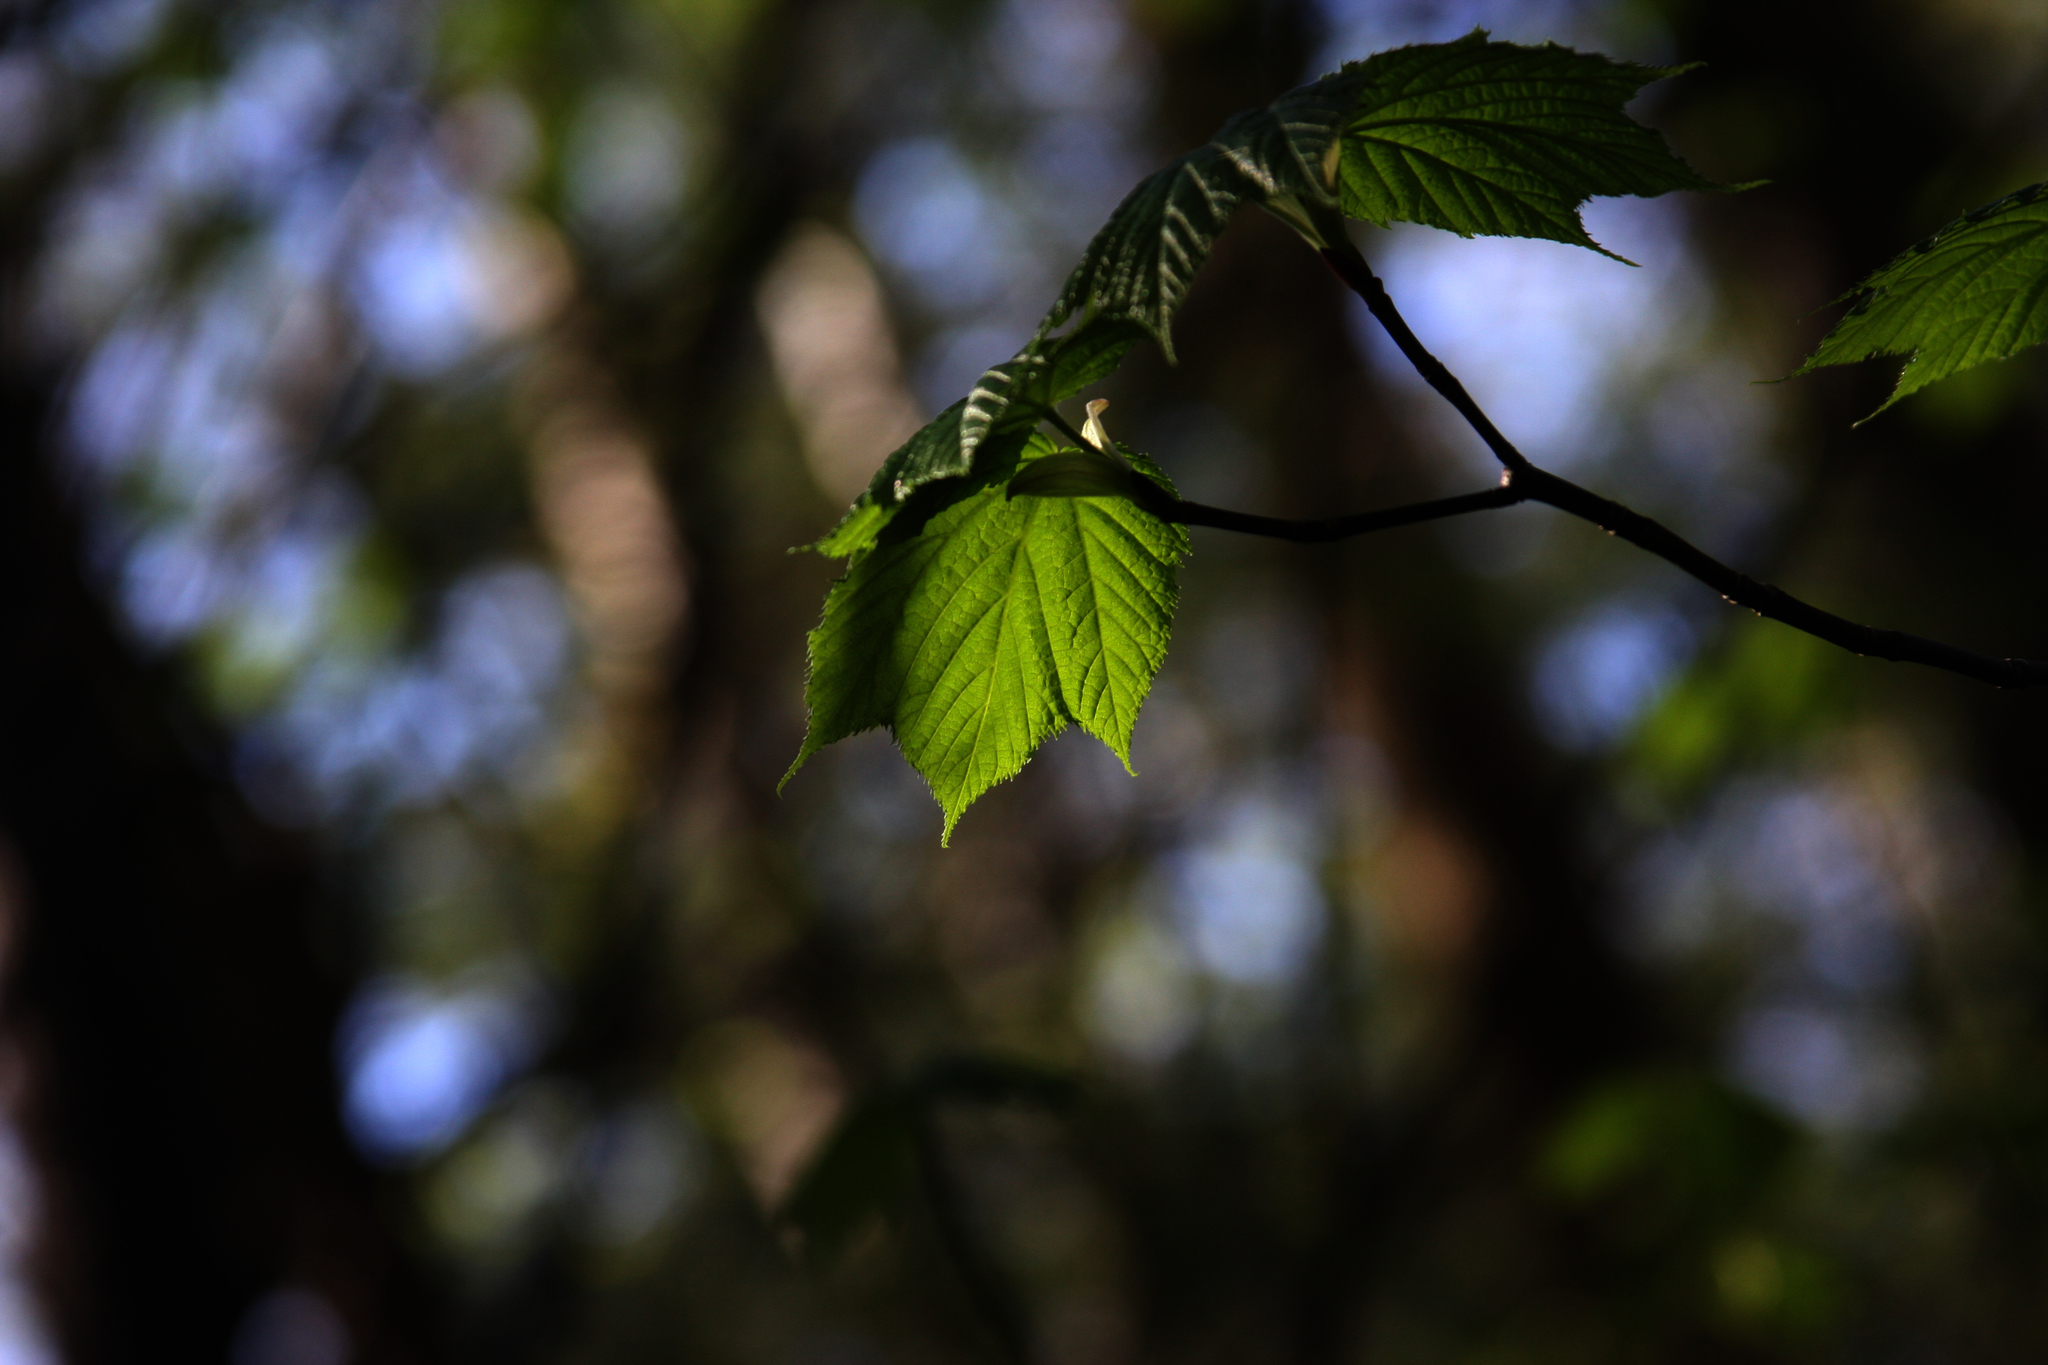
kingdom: Plantae
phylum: Tracheophyta
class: Magnoliopsida
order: Sapindales
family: Sapindaceae
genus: Acer
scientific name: Acer pensylvanicum
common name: Moosewood
